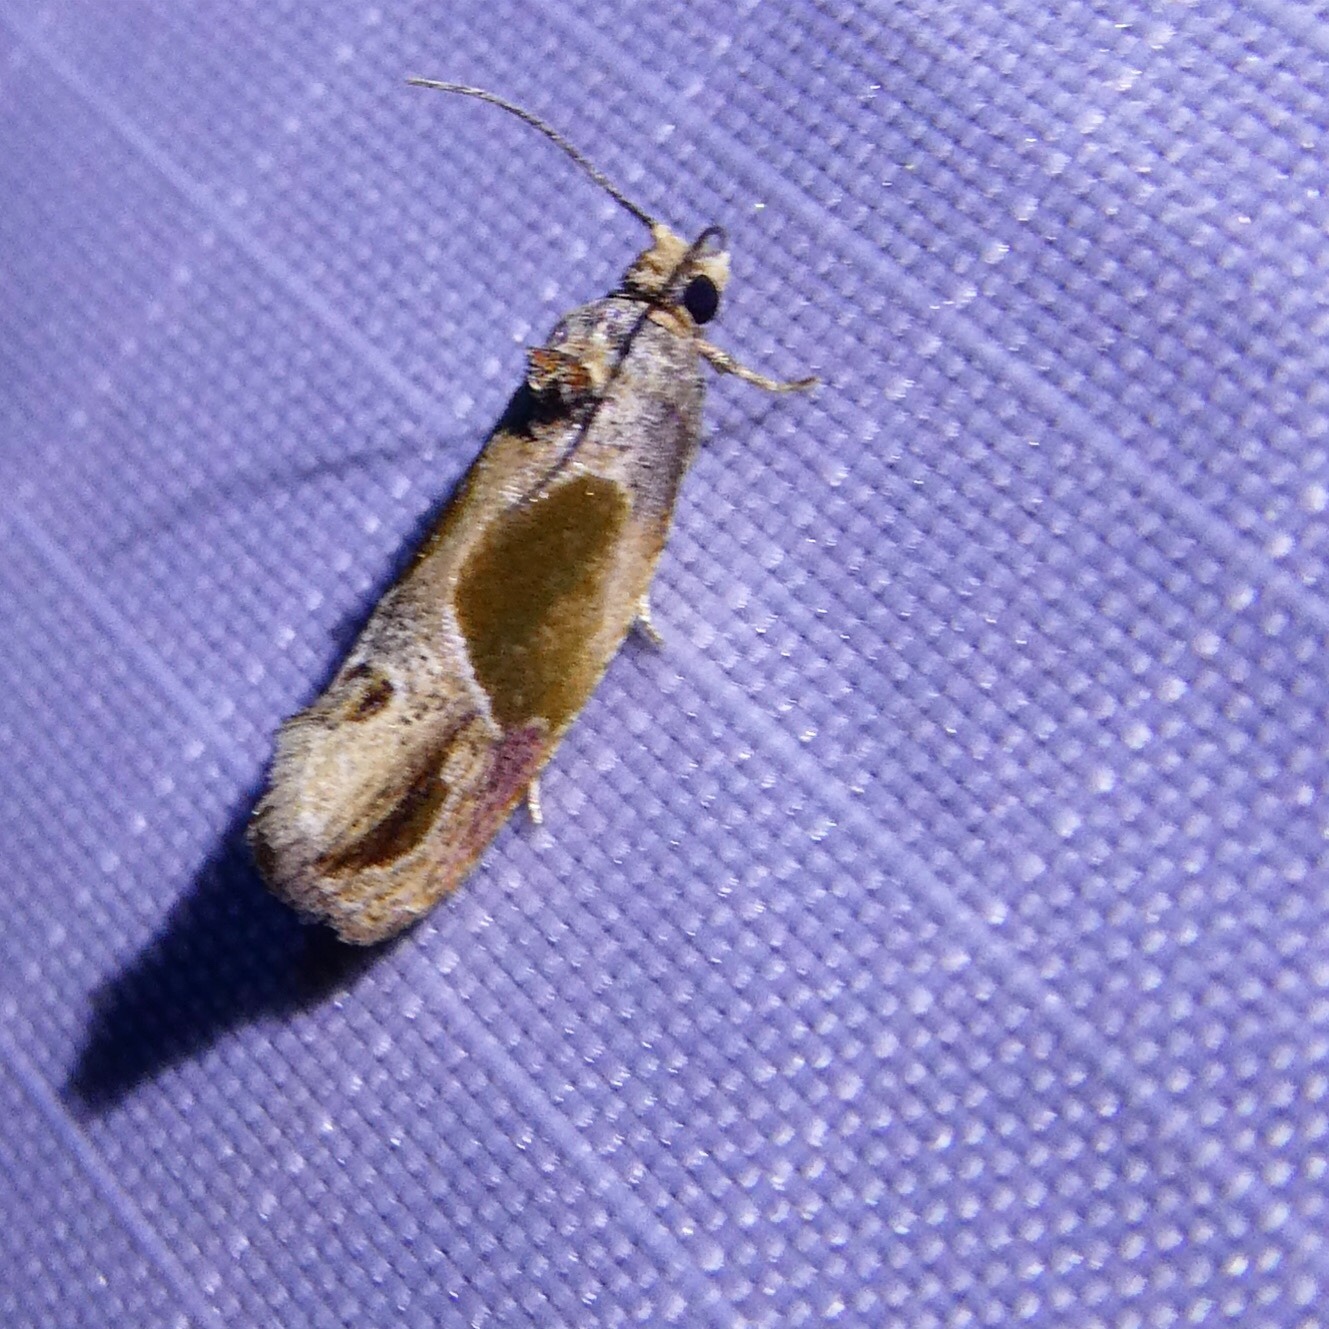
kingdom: Animalia
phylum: Arthropoda
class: Insecta
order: Lepidoptera
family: Tortricidae
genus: Eumarozia
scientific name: Eumarozia malachitana
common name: Sculptured moth
